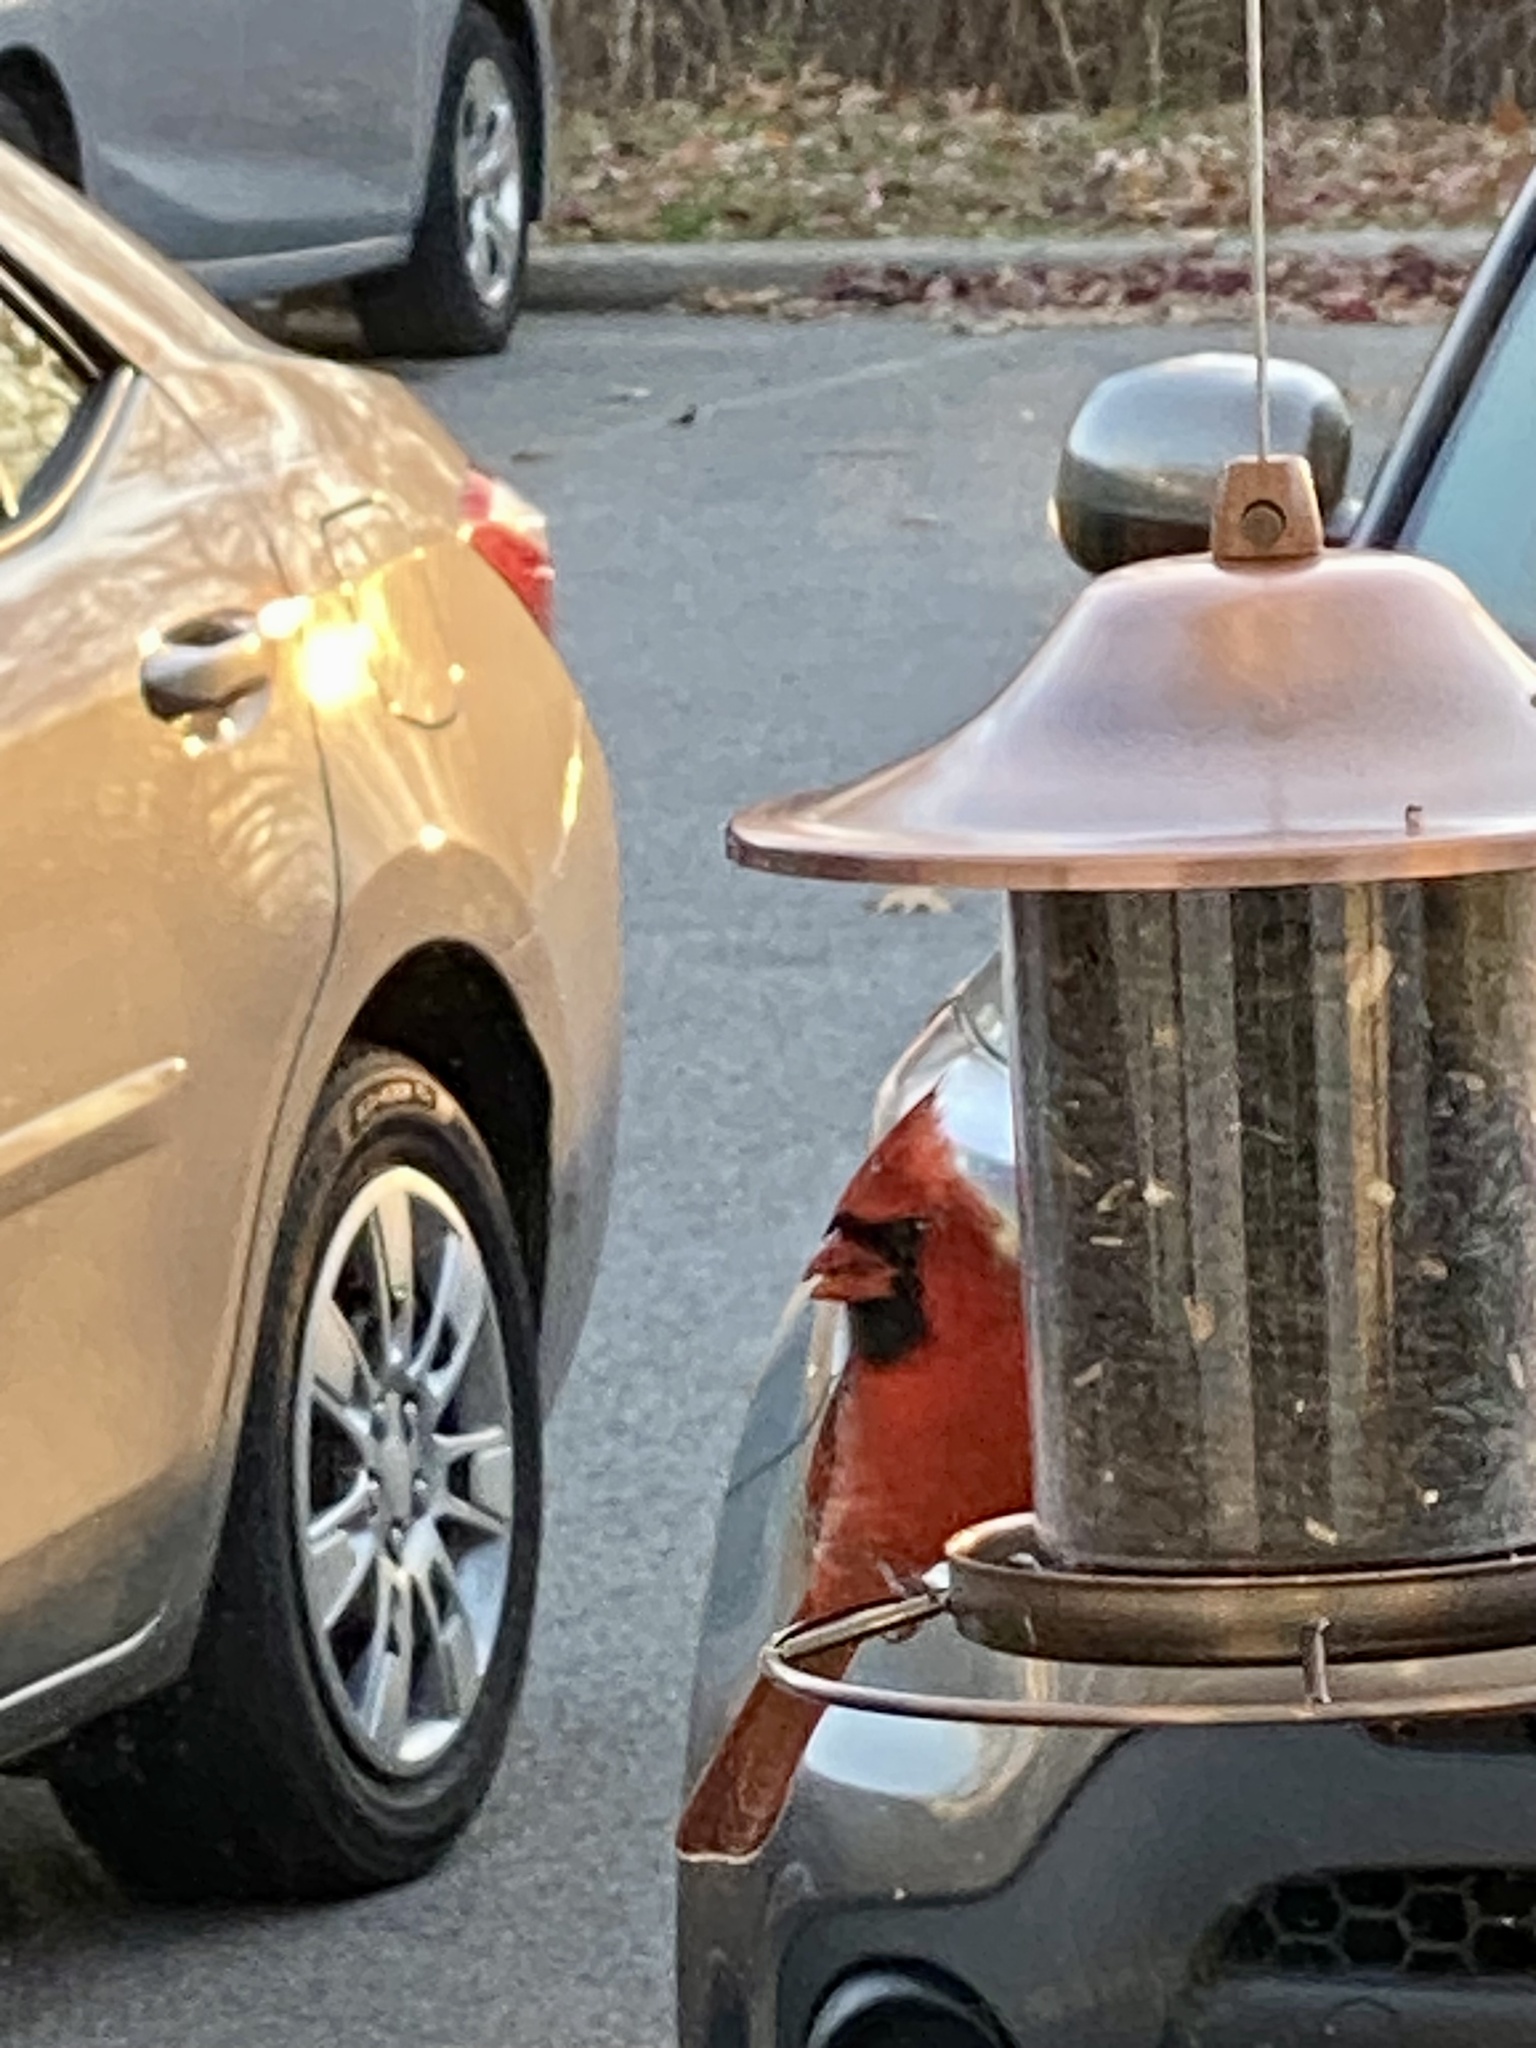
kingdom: Animalia
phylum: Chordata
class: Aves
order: Passeriformes
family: Cardinalidae
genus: Cardinalis
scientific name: Cardinalis cardinalis
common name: Northern cardinal
